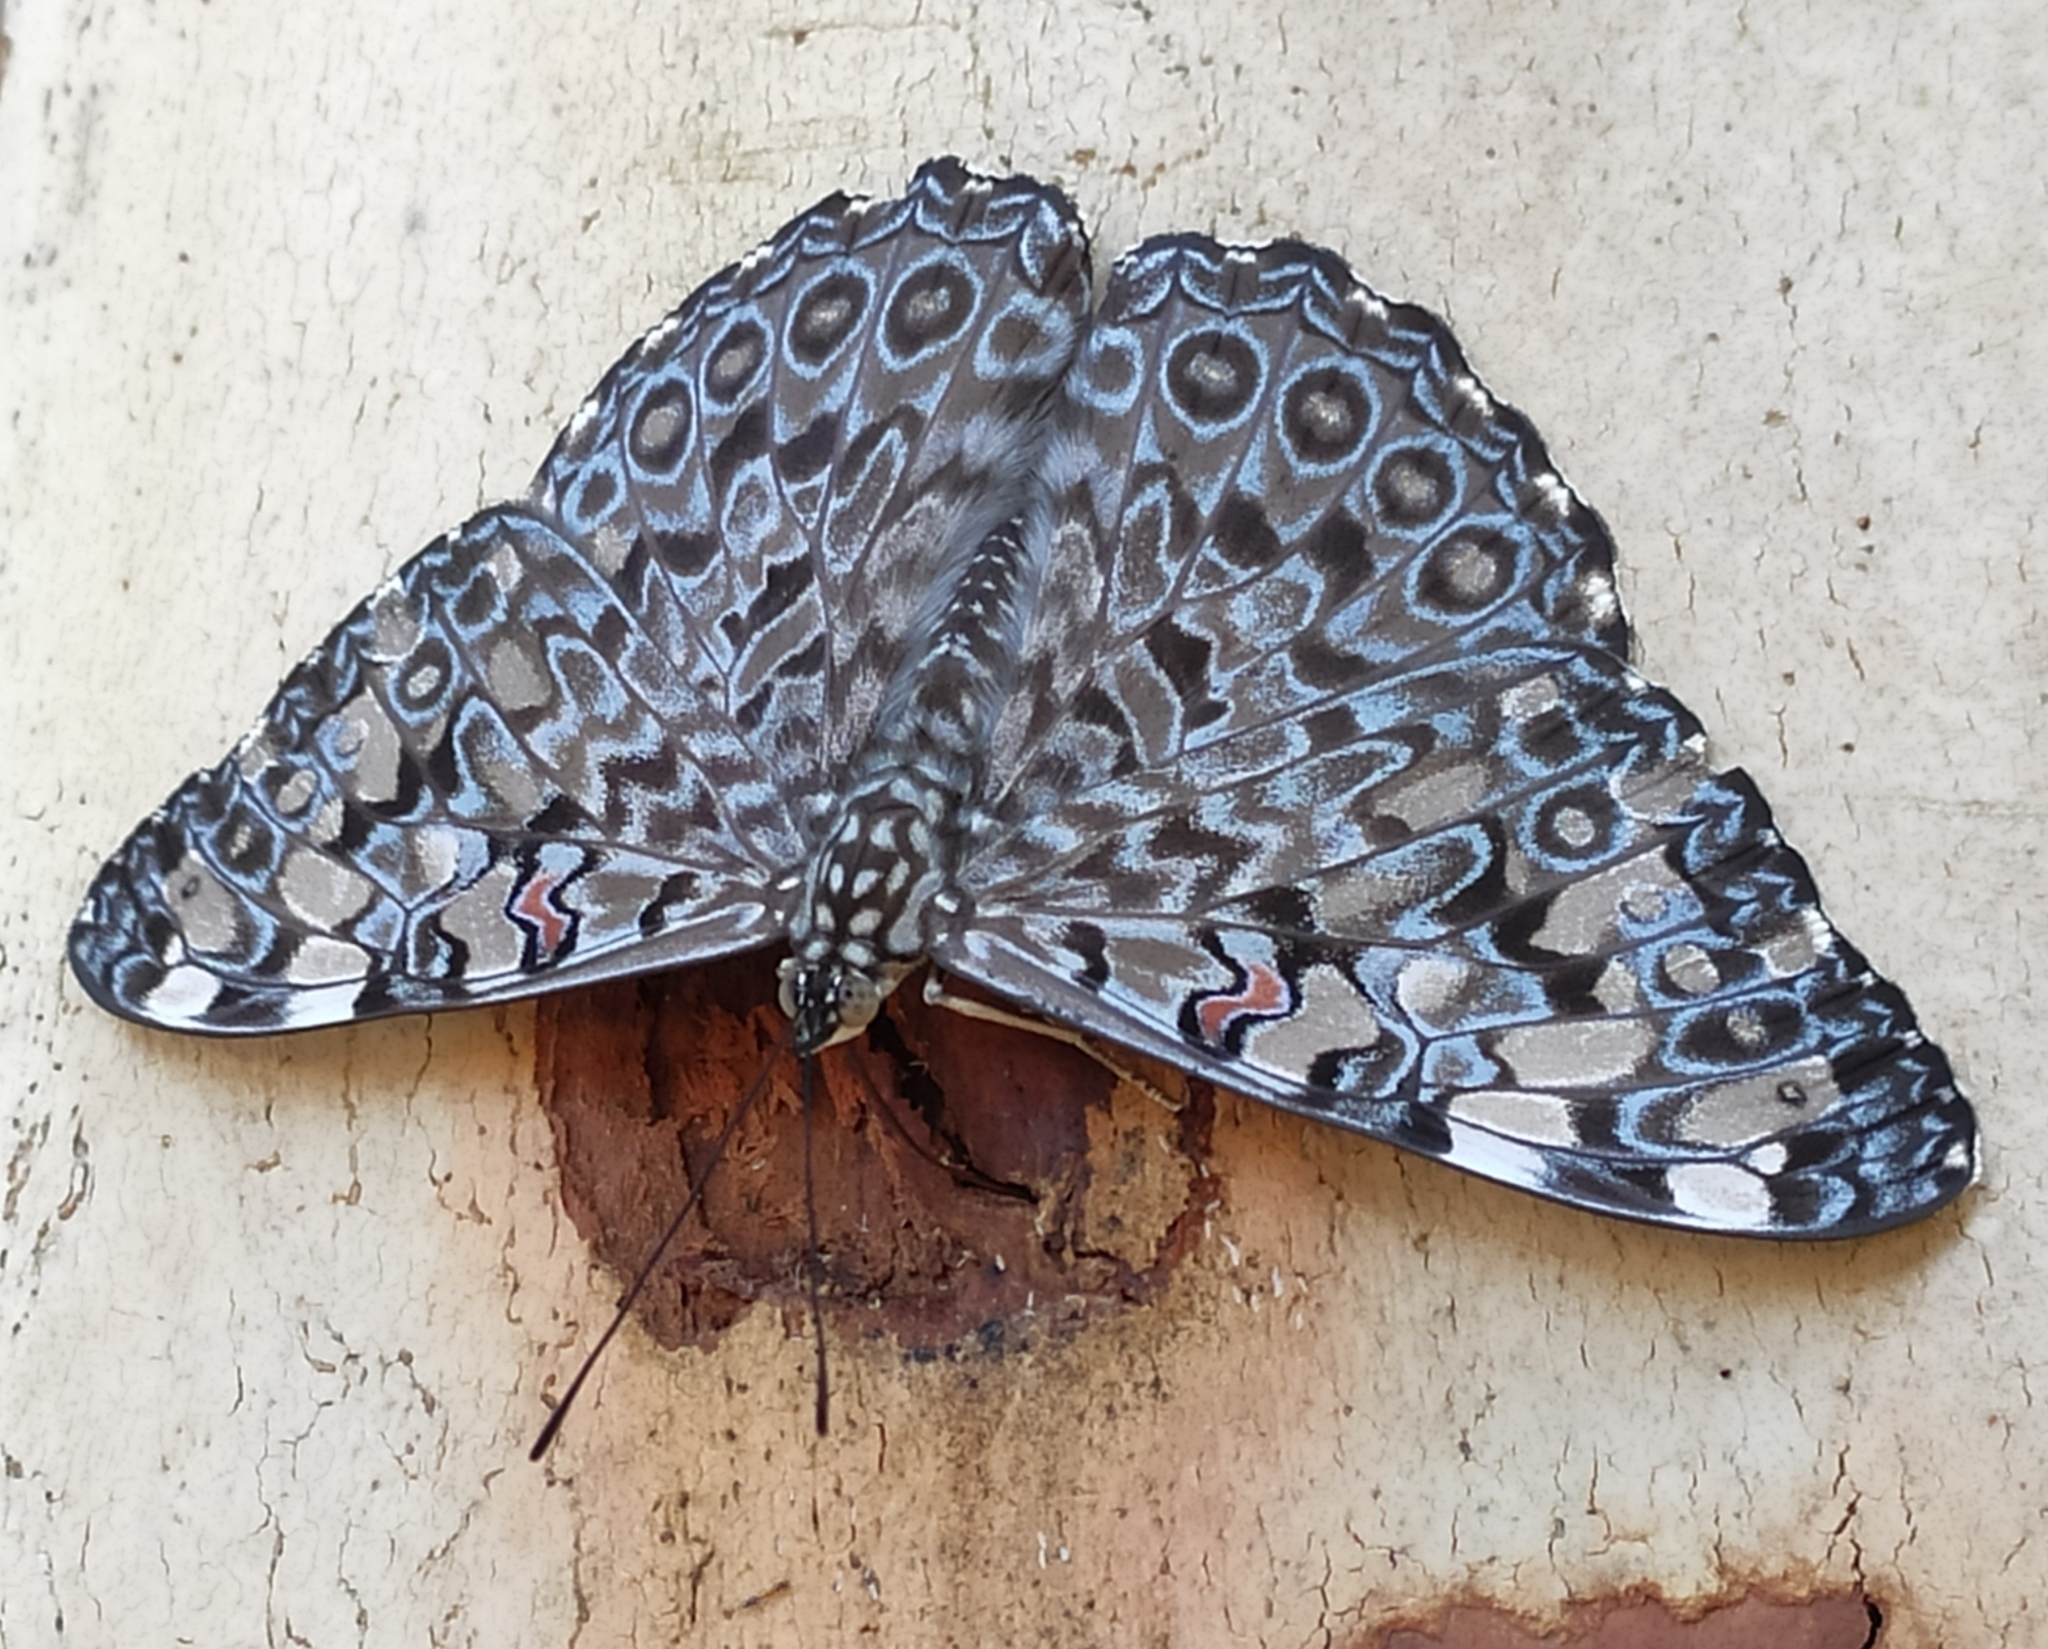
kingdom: Animalia
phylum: Arthropoda
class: Insecta
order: Lepidoptera
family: Nymphalidae
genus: Hamadryas
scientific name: Hamadryas feronia
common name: Variable cracker
